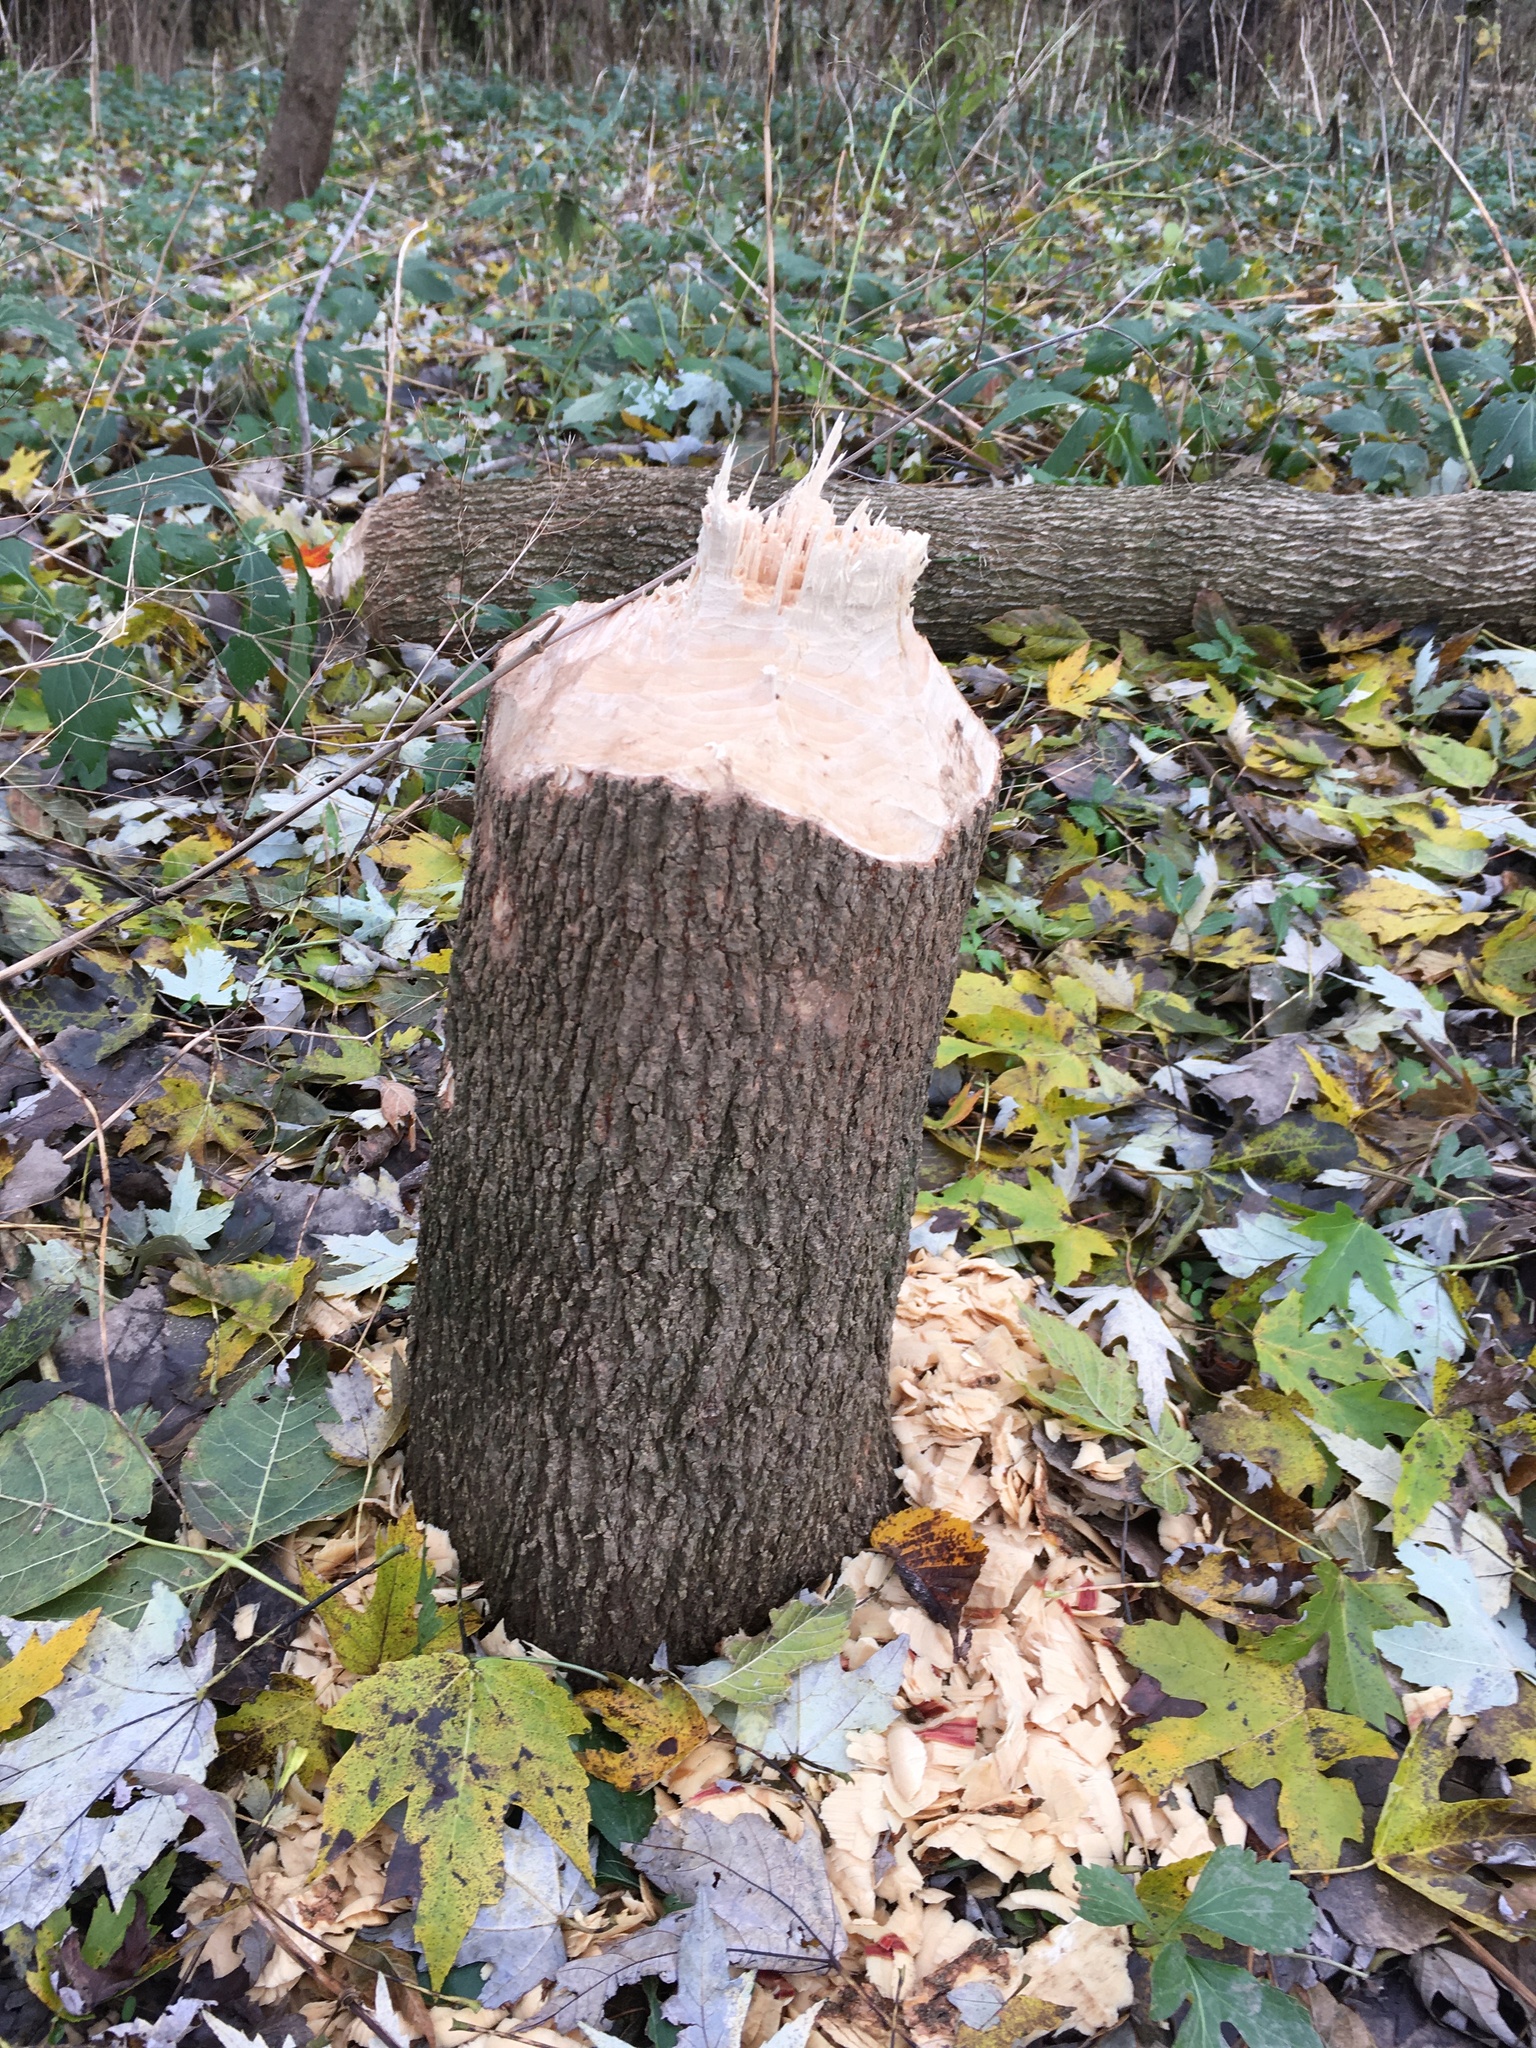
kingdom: Animalia
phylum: Chordata
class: Mammalia
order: Rodentia
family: Castoridae
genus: Castor
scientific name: Castor canadensis
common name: American beaver
